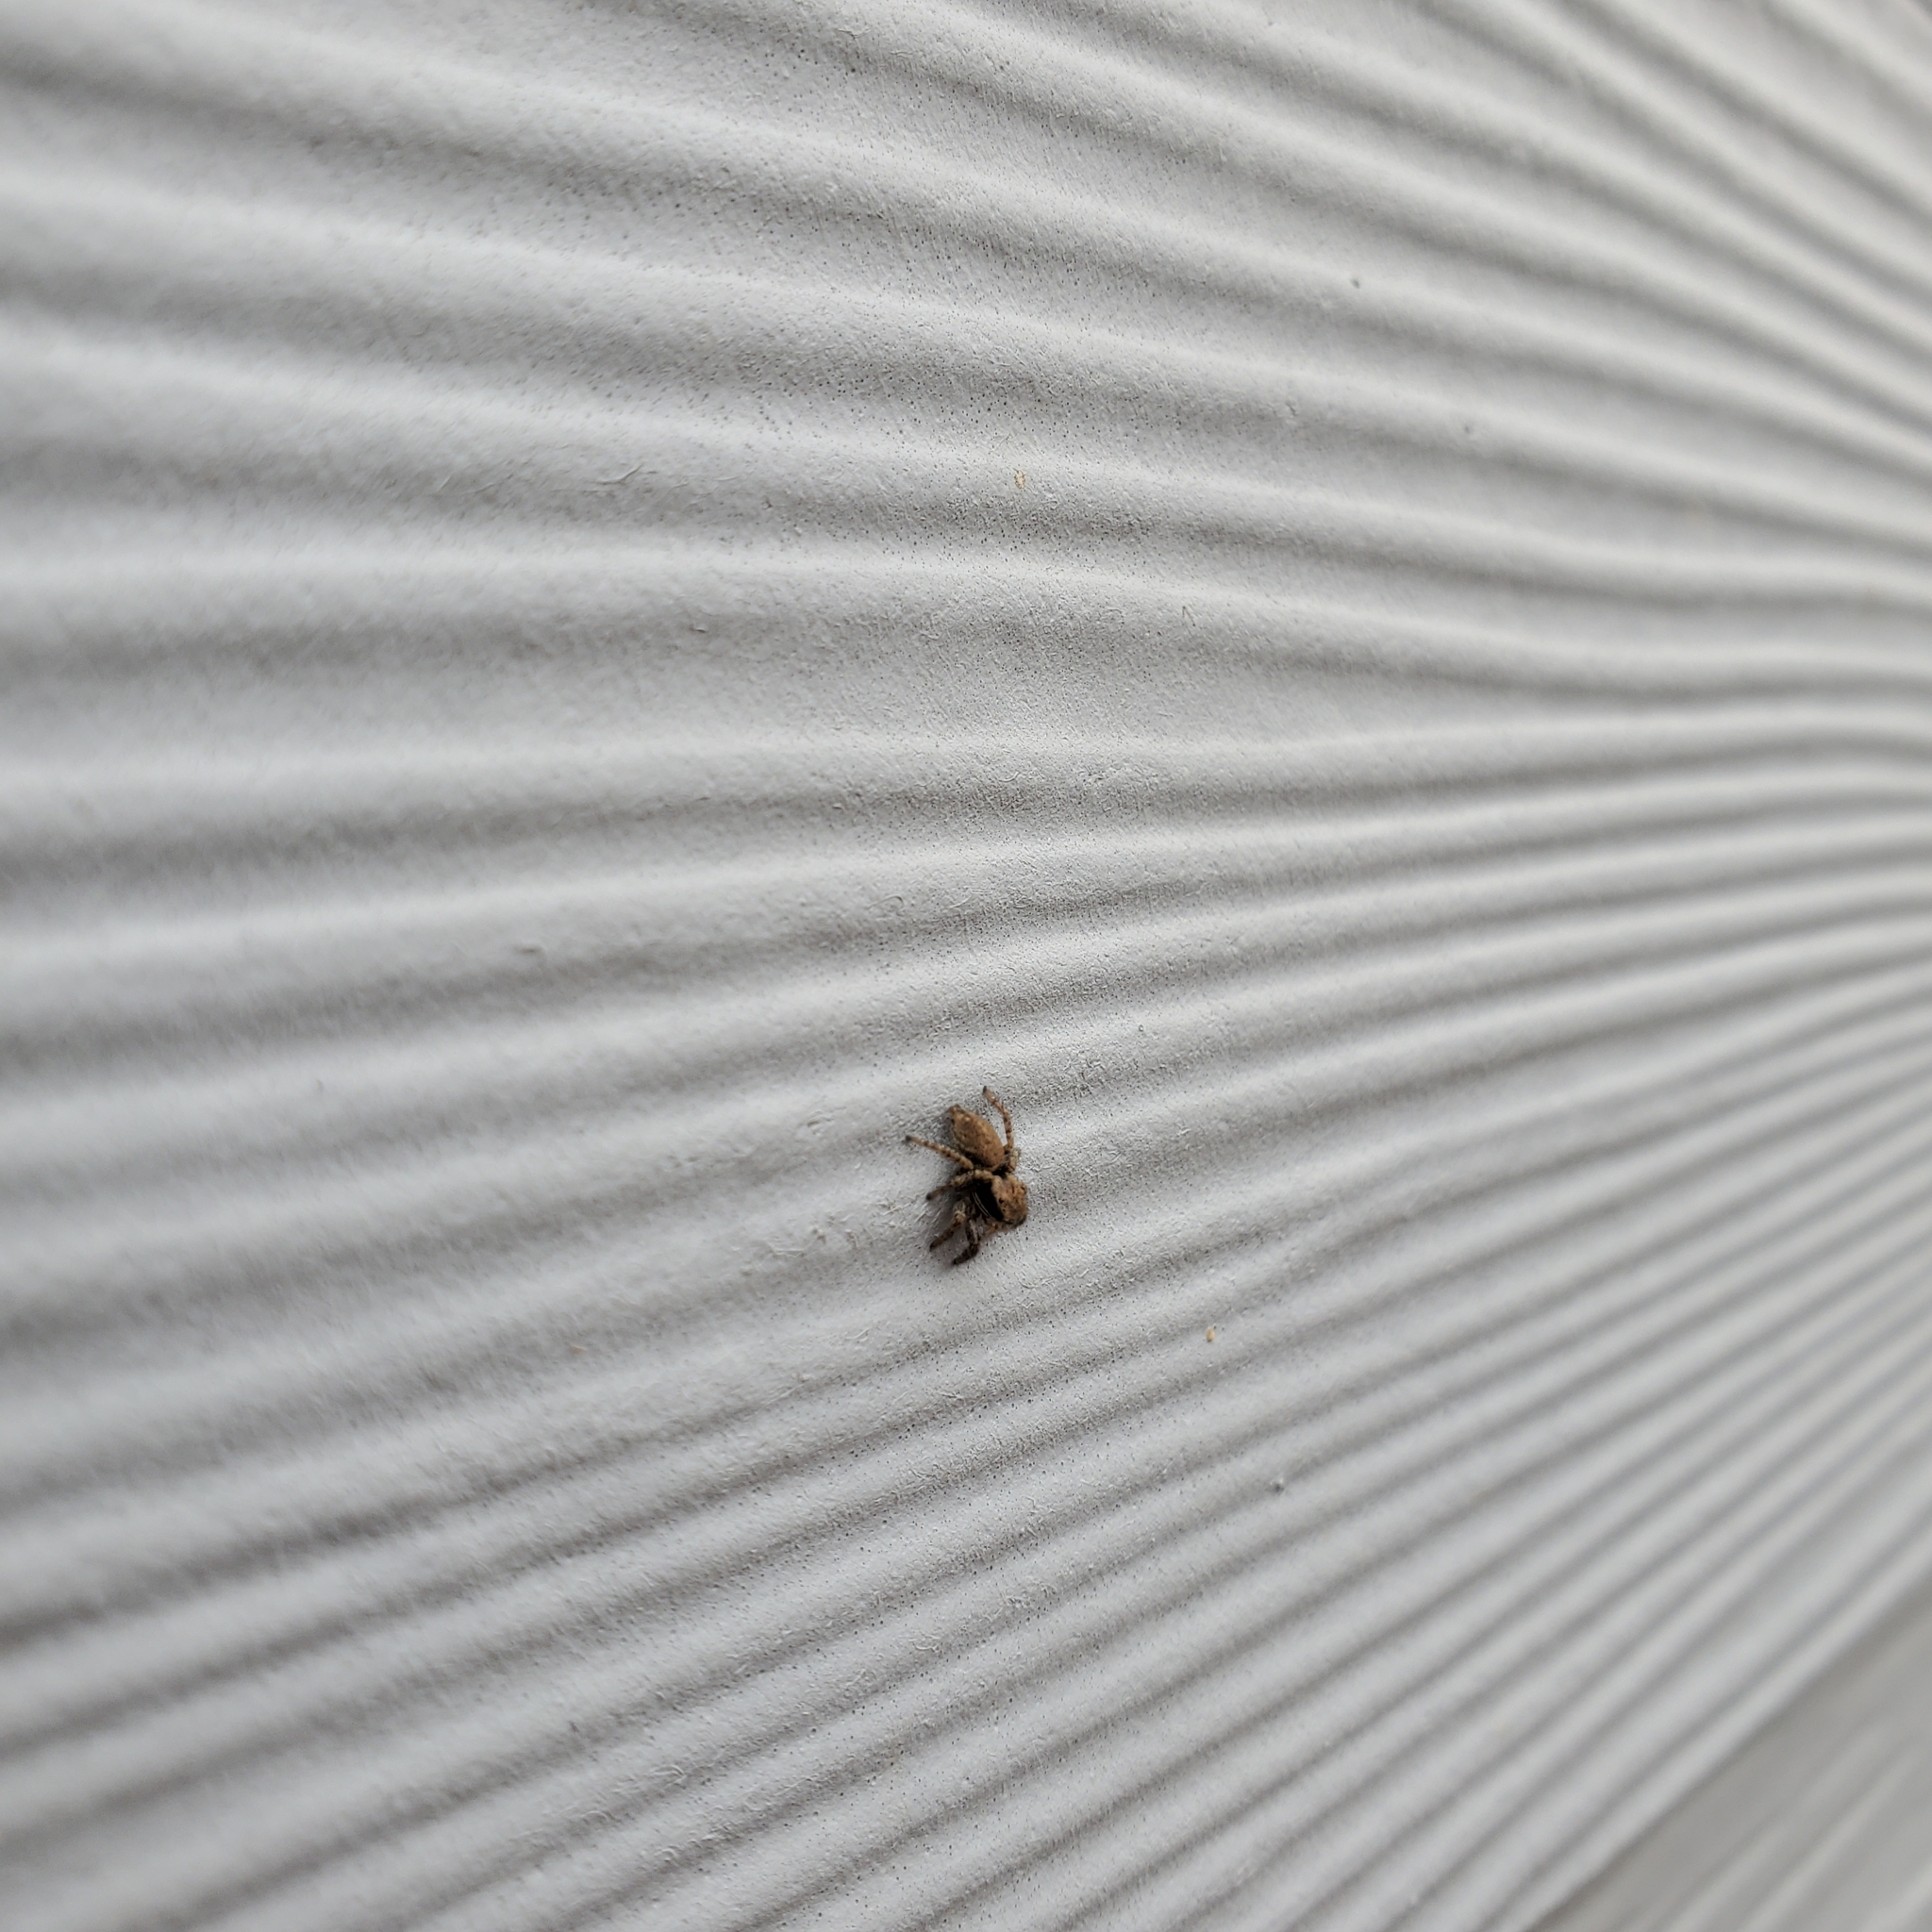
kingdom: Animalia
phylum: Arthropoda
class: Arachnida
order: Araneae
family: Salticidae
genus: Habronattus
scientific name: Habronattus oregonensis
